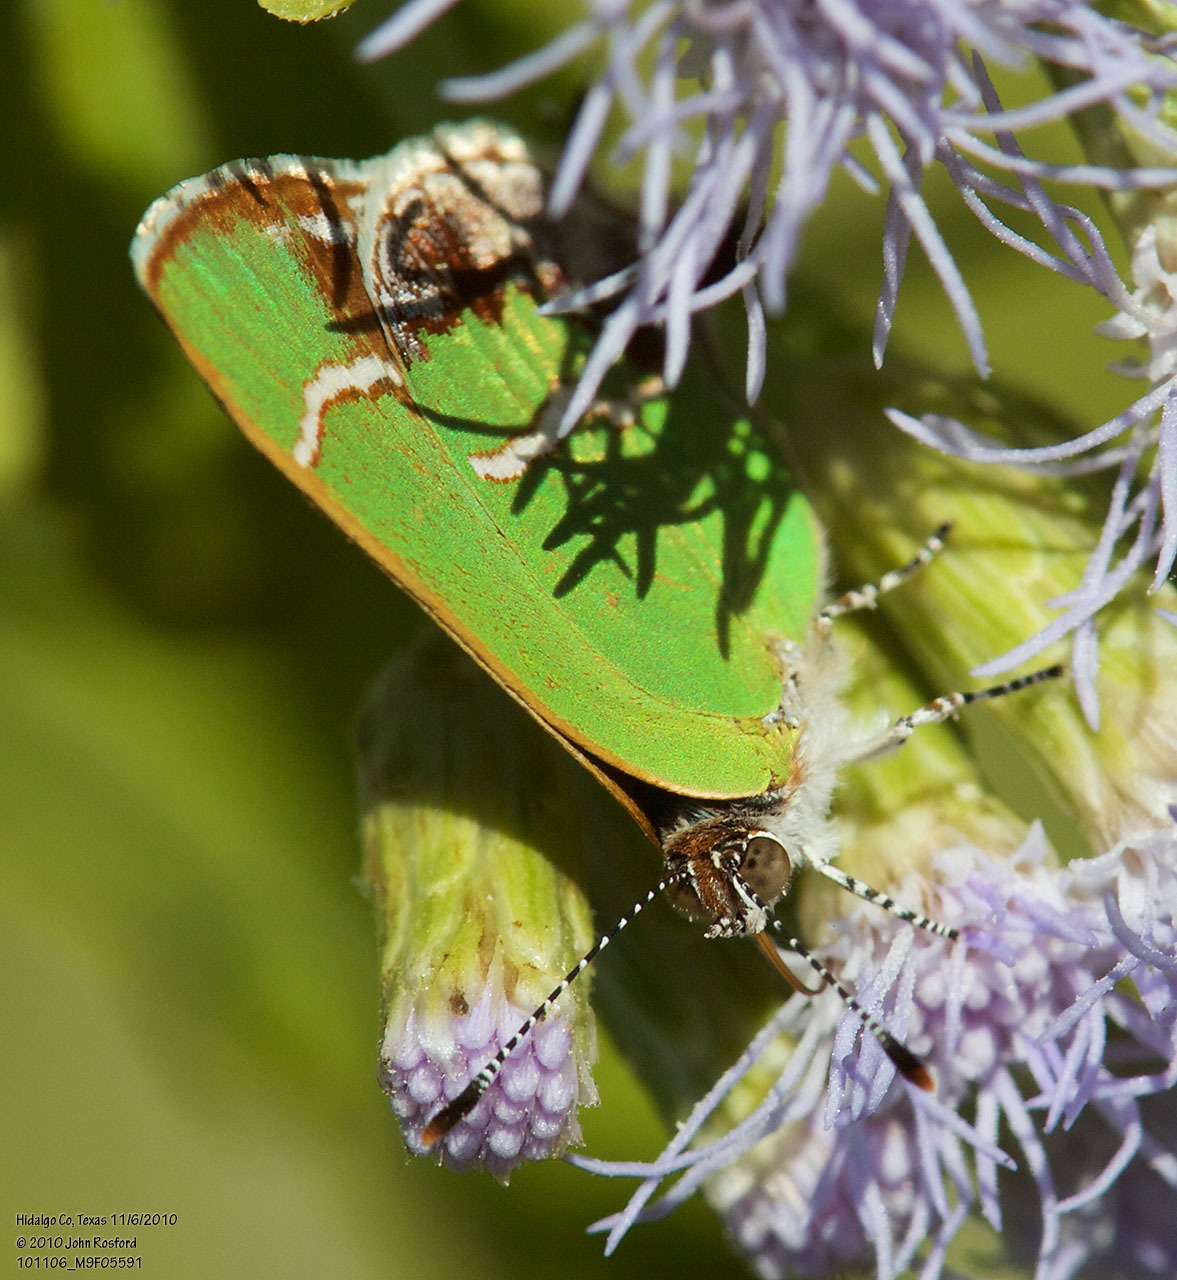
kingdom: Animalia
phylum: Arthropoda
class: Insecta
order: Lepidoptera
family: Lycaenidae
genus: Chlorostrymon
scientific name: Chlorostrymon simaethis
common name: Silver-banded hairstreak
